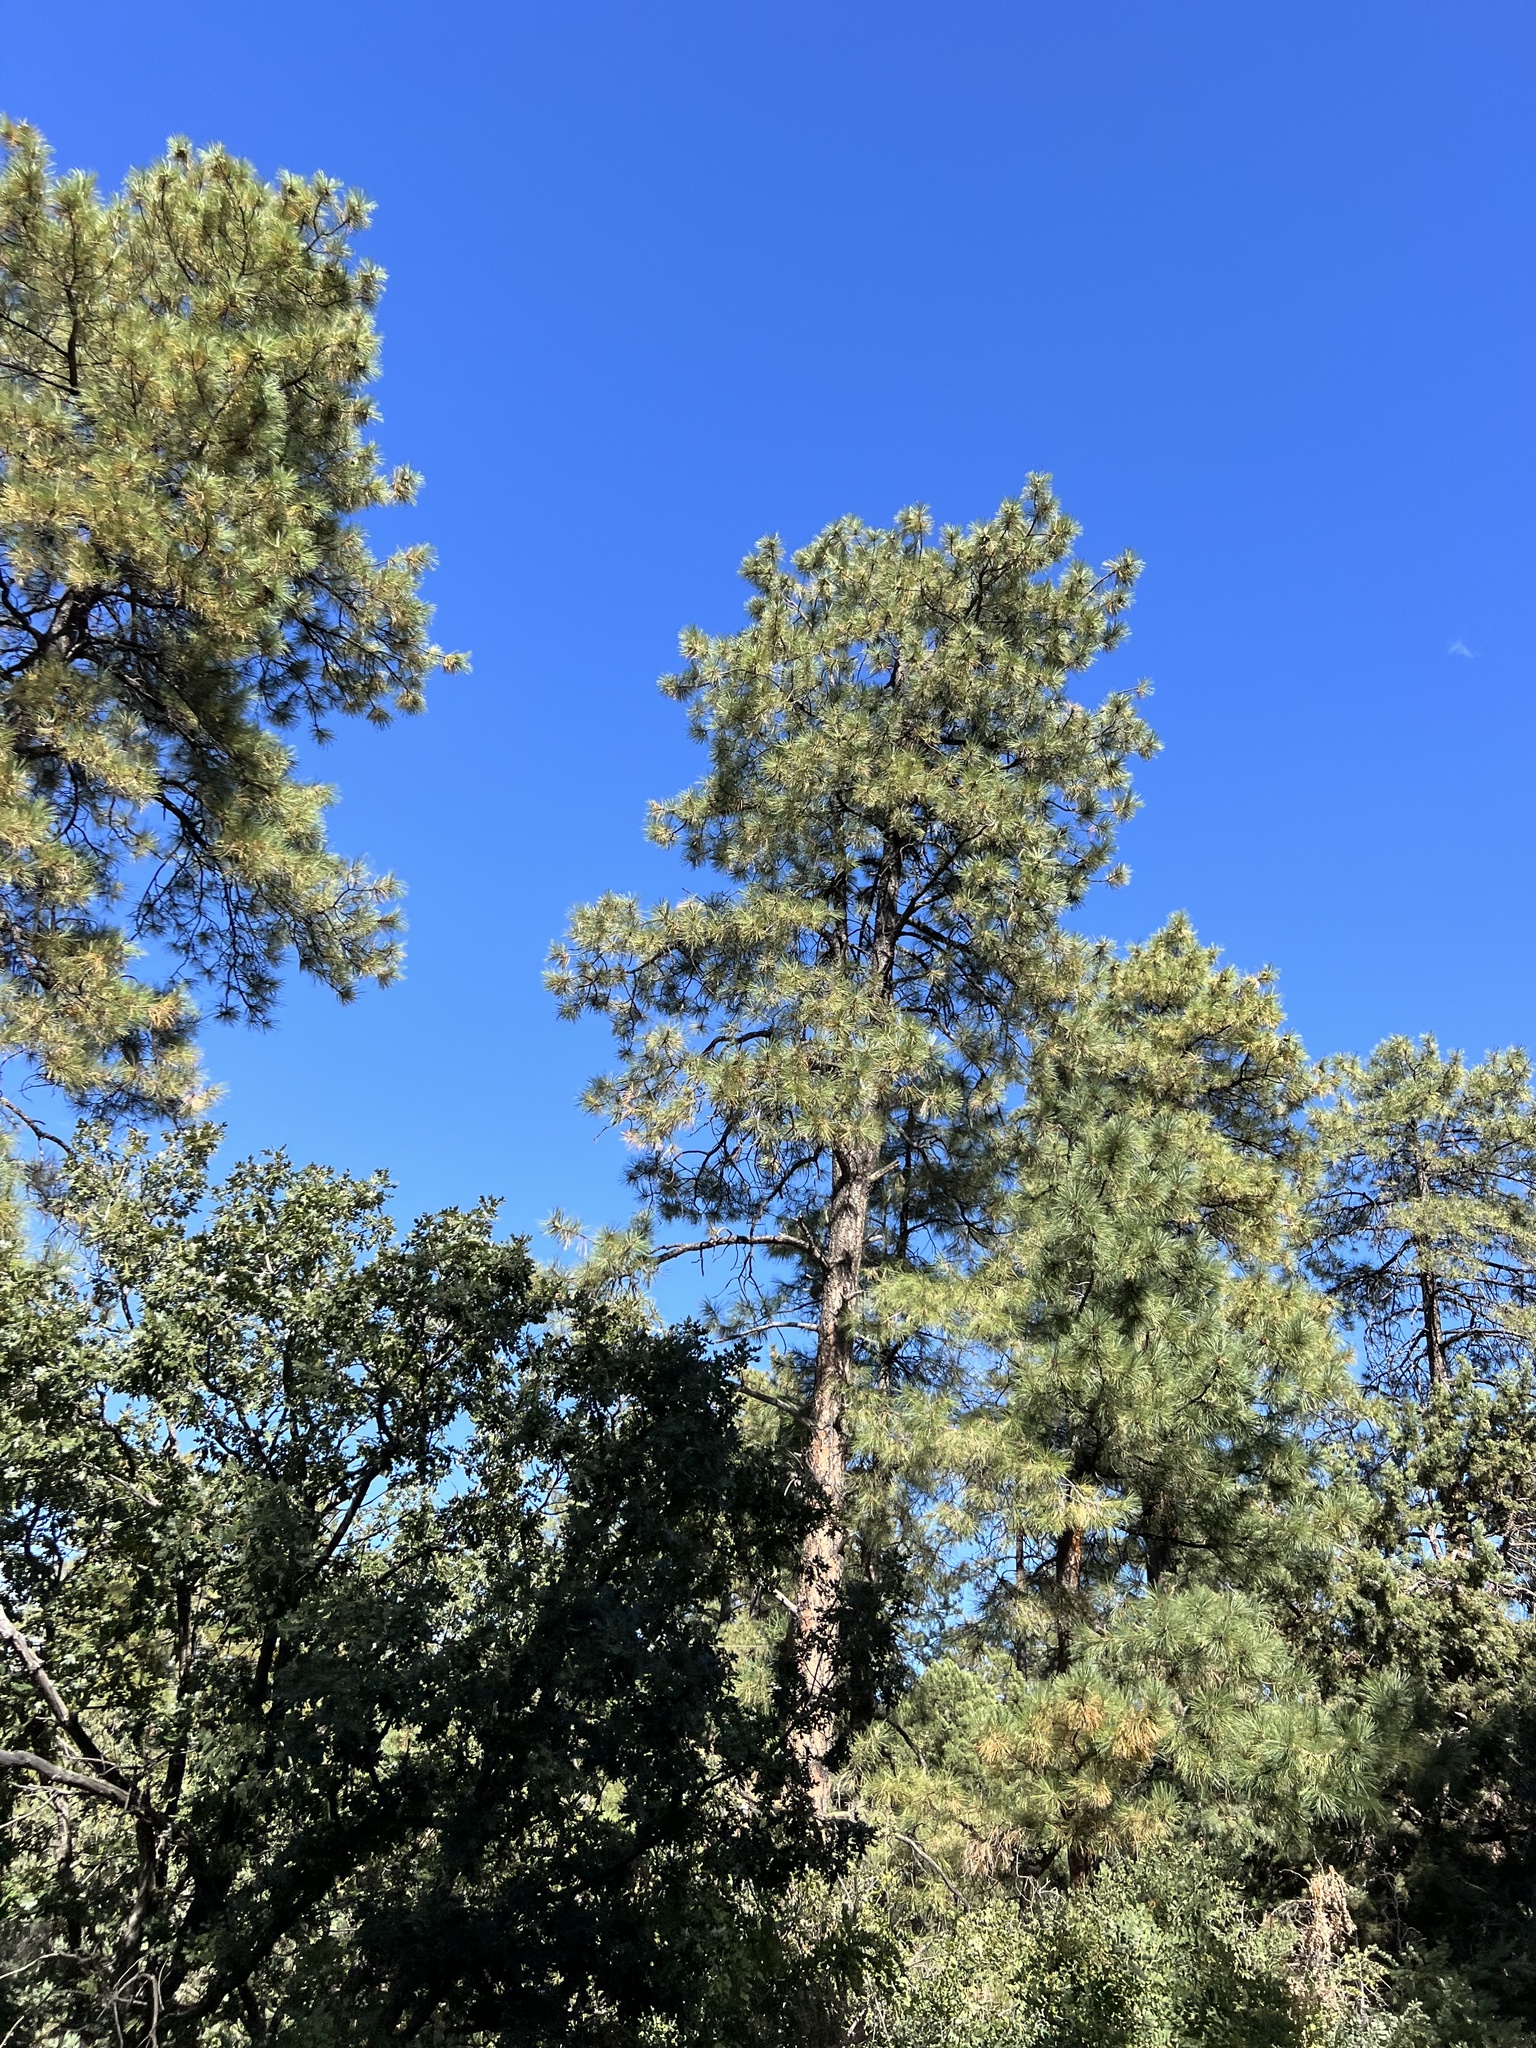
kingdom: Plantae
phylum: Tracheophyta
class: Pinopsida
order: Pinales
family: Pinaceae
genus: Pinus
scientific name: Pinus ponderosa
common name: Western yellow-pine
